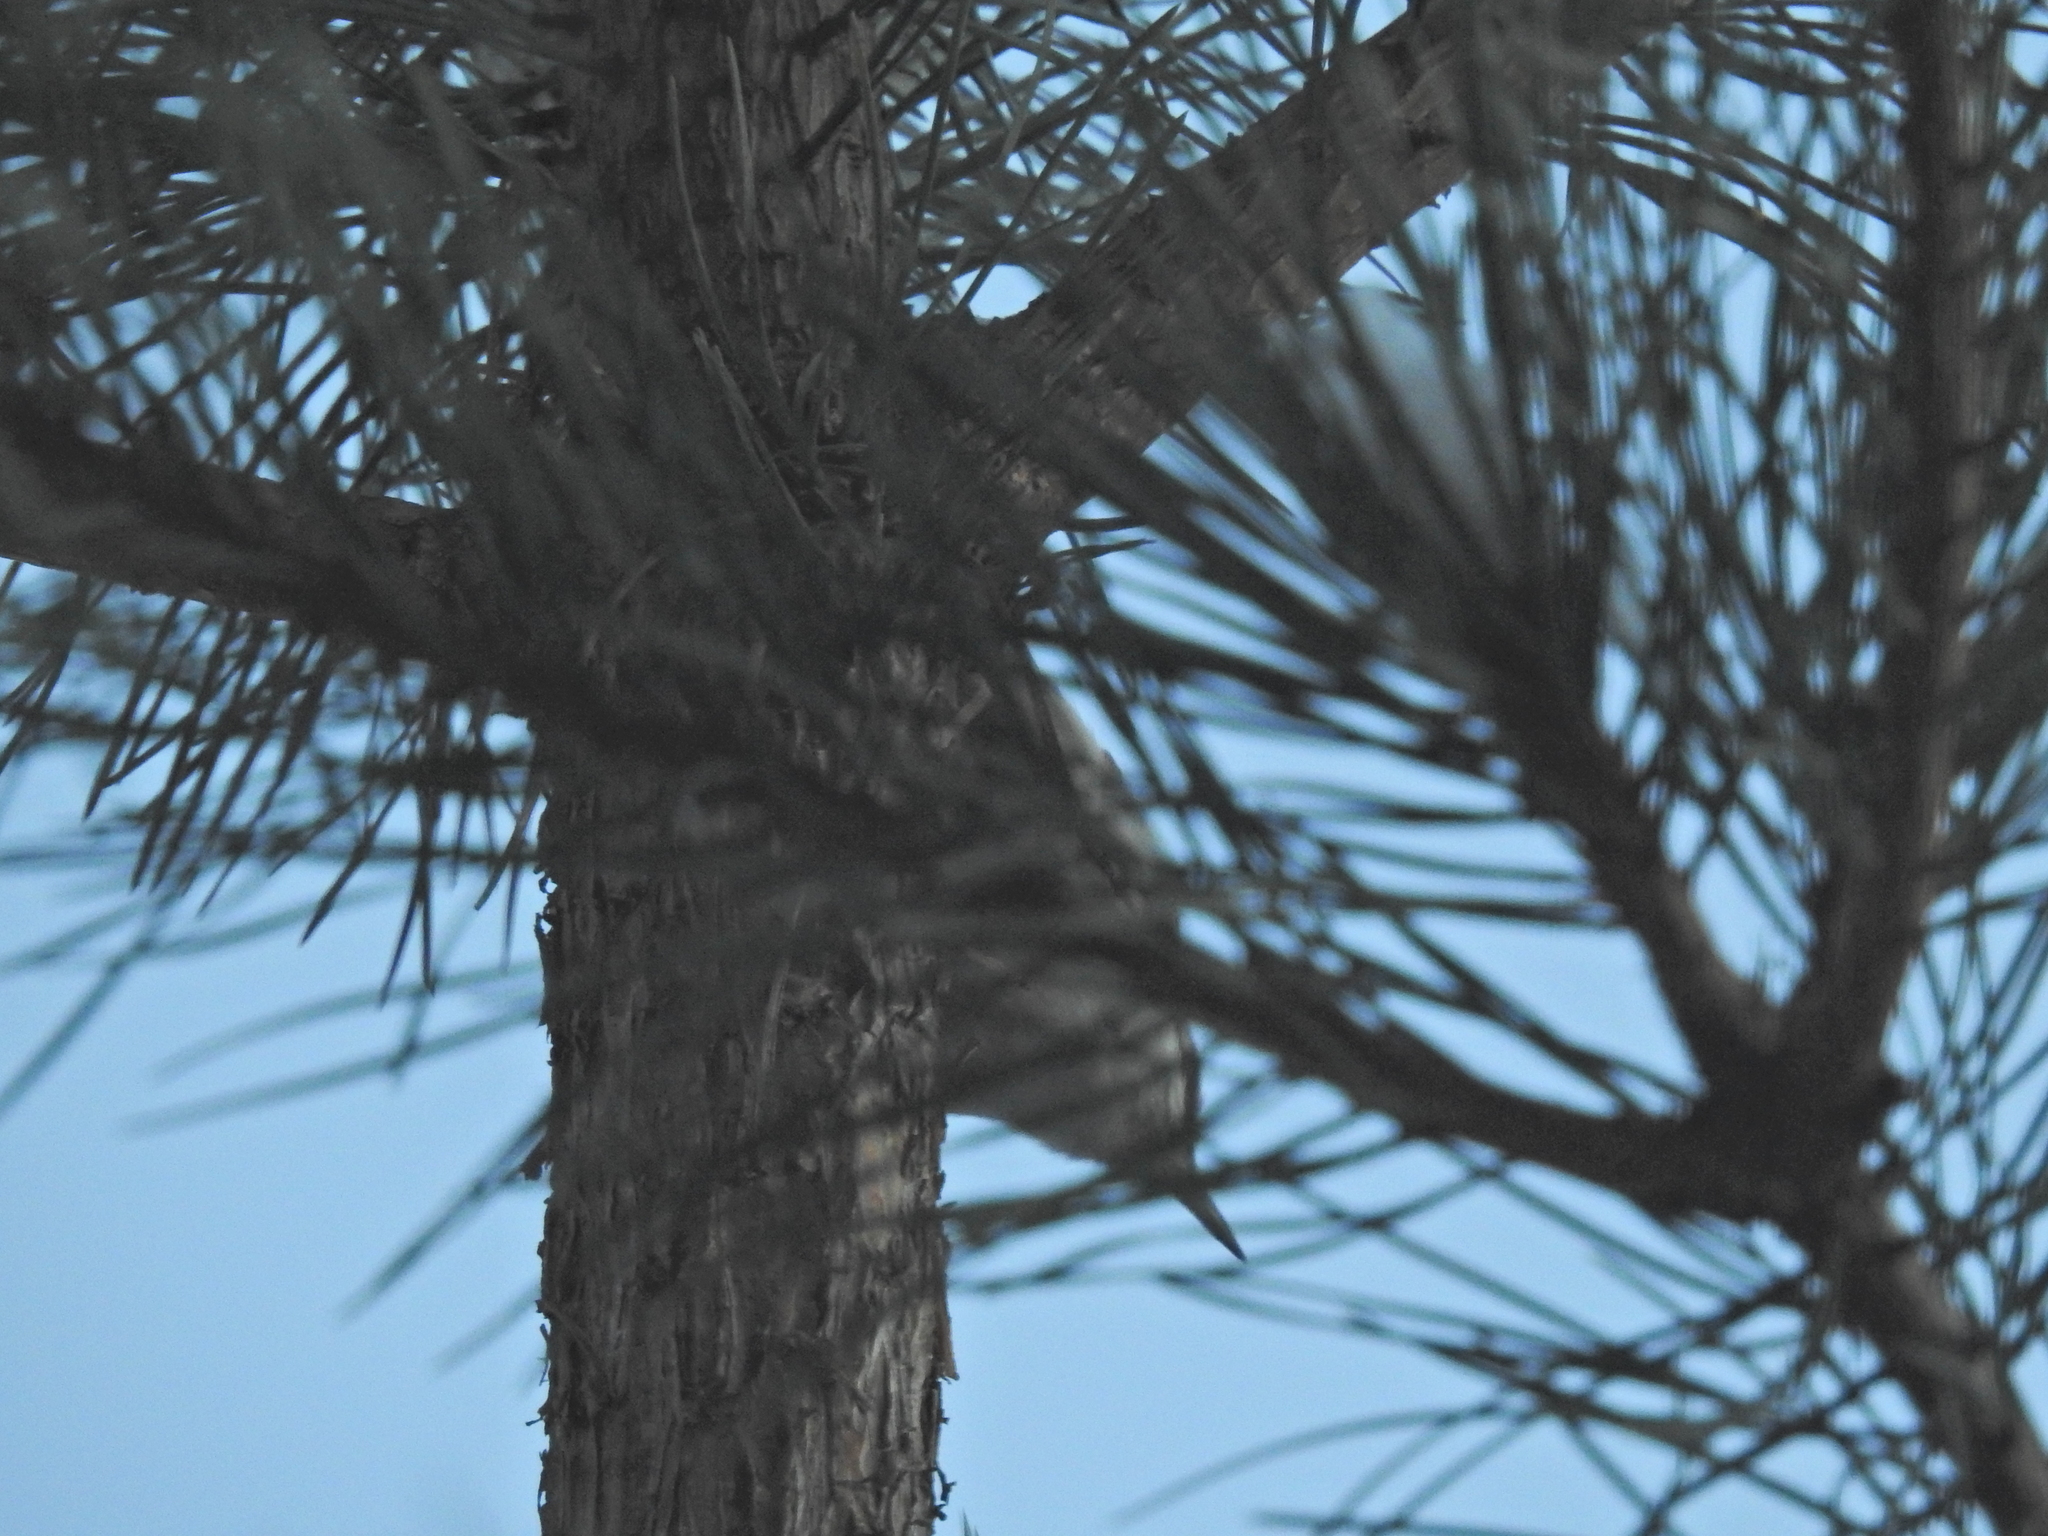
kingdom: Animalia
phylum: Chordata
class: Aves
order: Passeriformes
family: Sittidae
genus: Sitta
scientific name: Sitta europaea
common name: Eurasian nuthatch
